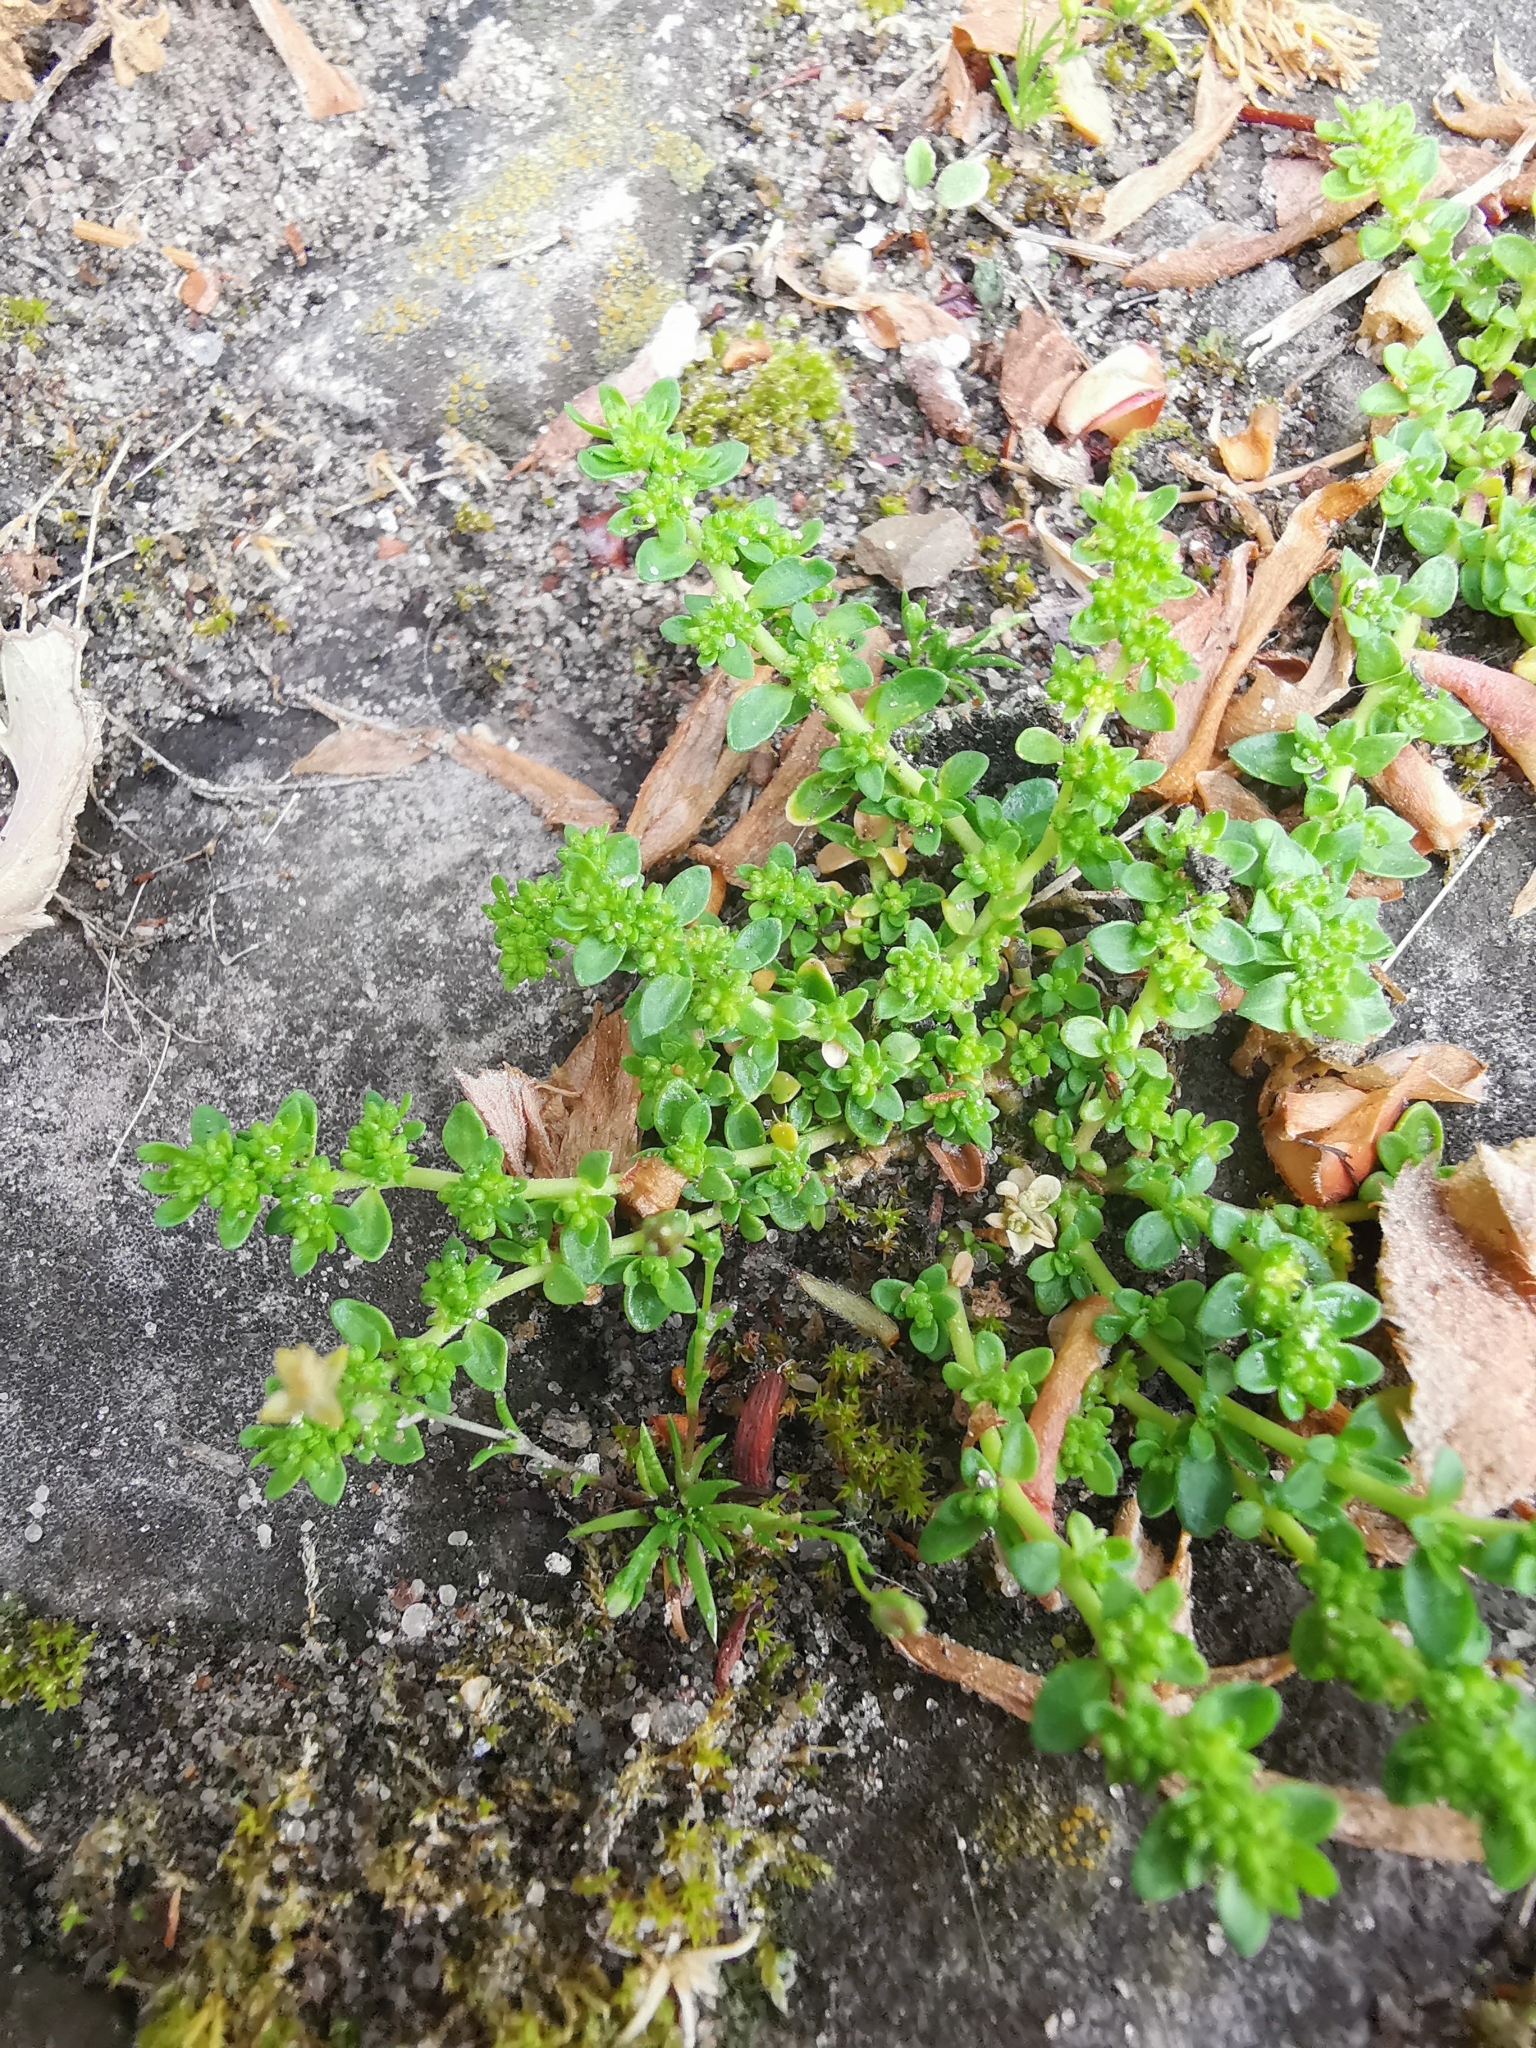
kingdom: Plantae
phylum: Tracheophyta
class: Magnoliopsida
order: Caryophyllales
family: Caryophyllaceae
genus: Herniaria
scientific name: Herniaria glabra
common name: Smooth rupturewort
